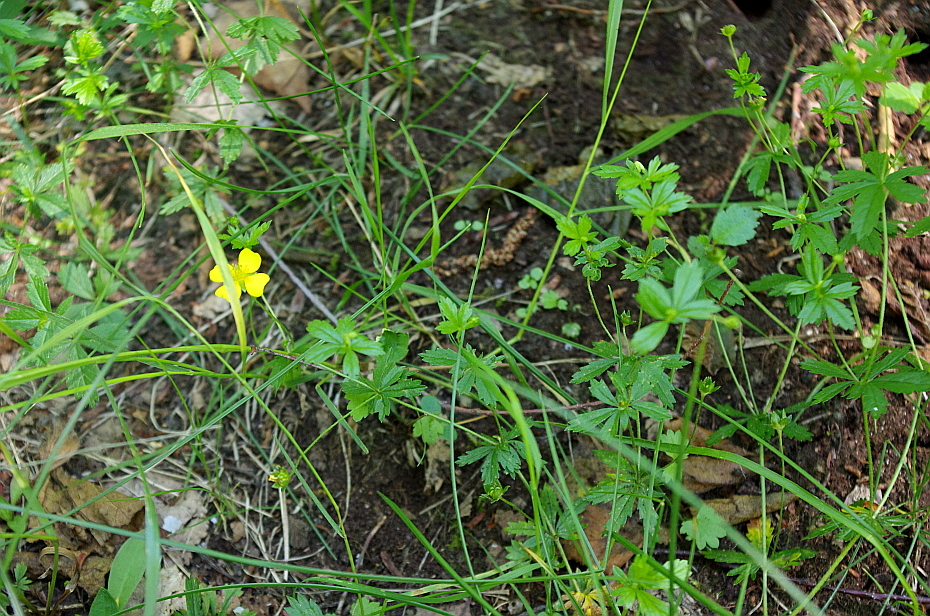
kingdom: Plantae
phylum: Tracheophyta
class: Magnoliopsida
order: Rosales
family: Rosaceae
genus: Potentilla
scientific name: Potentilla erecta
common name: Tormentil
